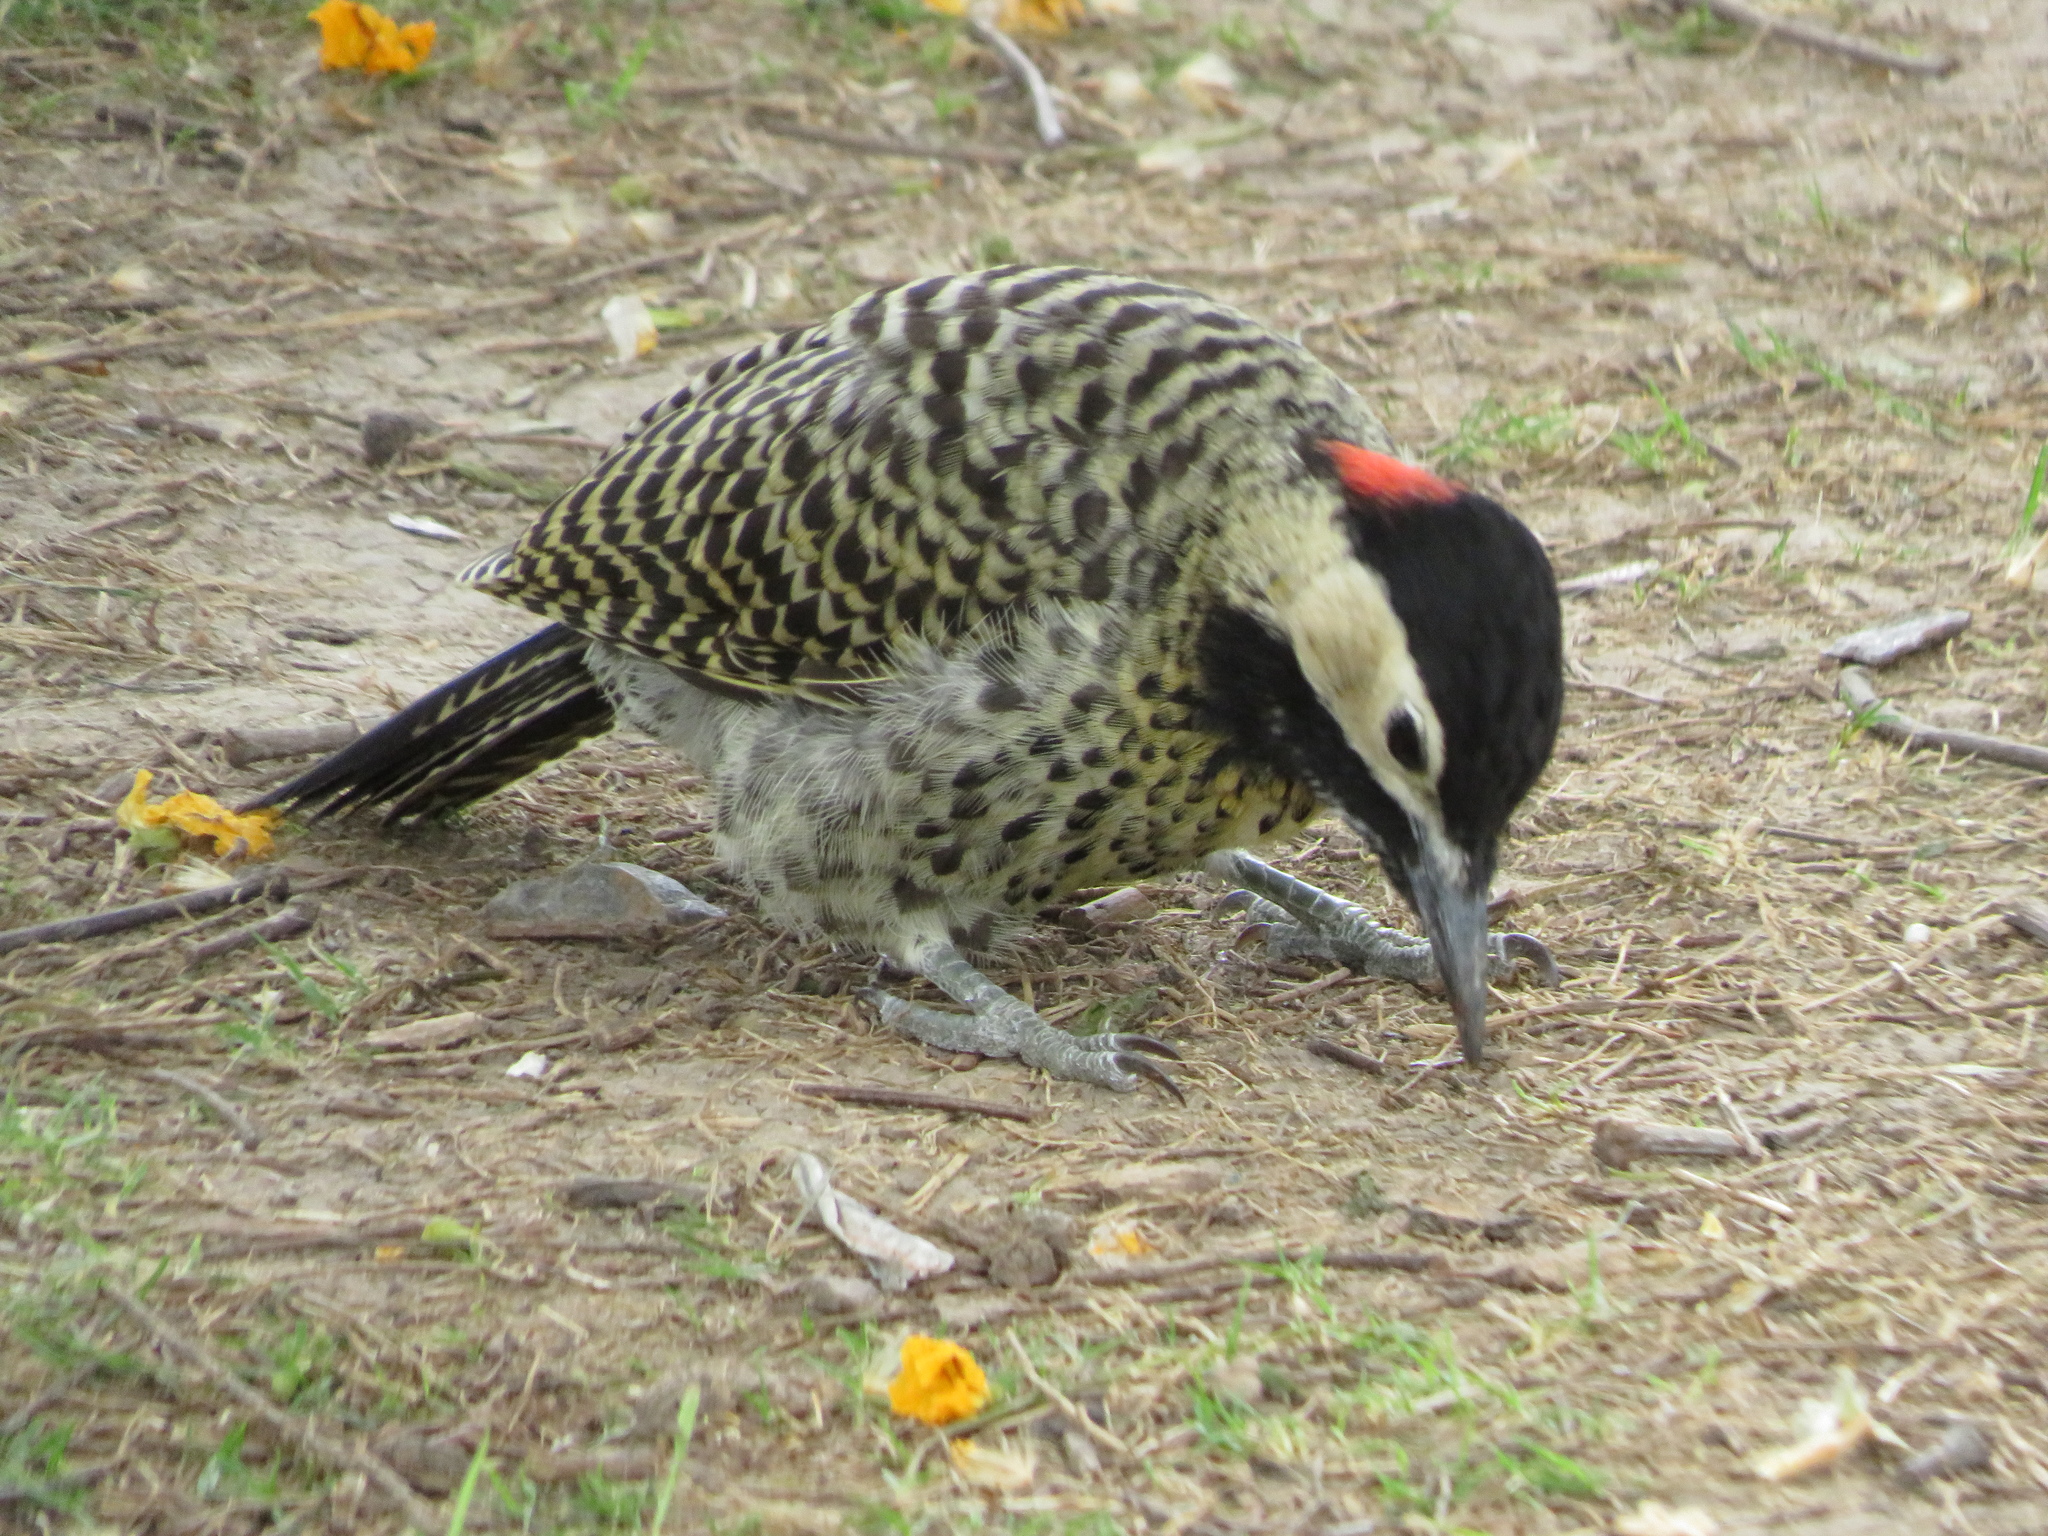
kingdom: Animalia
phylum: Chordata
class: Aves
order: Piciformes
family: Picidae
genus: Colaptes
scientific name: Colaptes melanochloros
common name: Green-barred woodpecker
